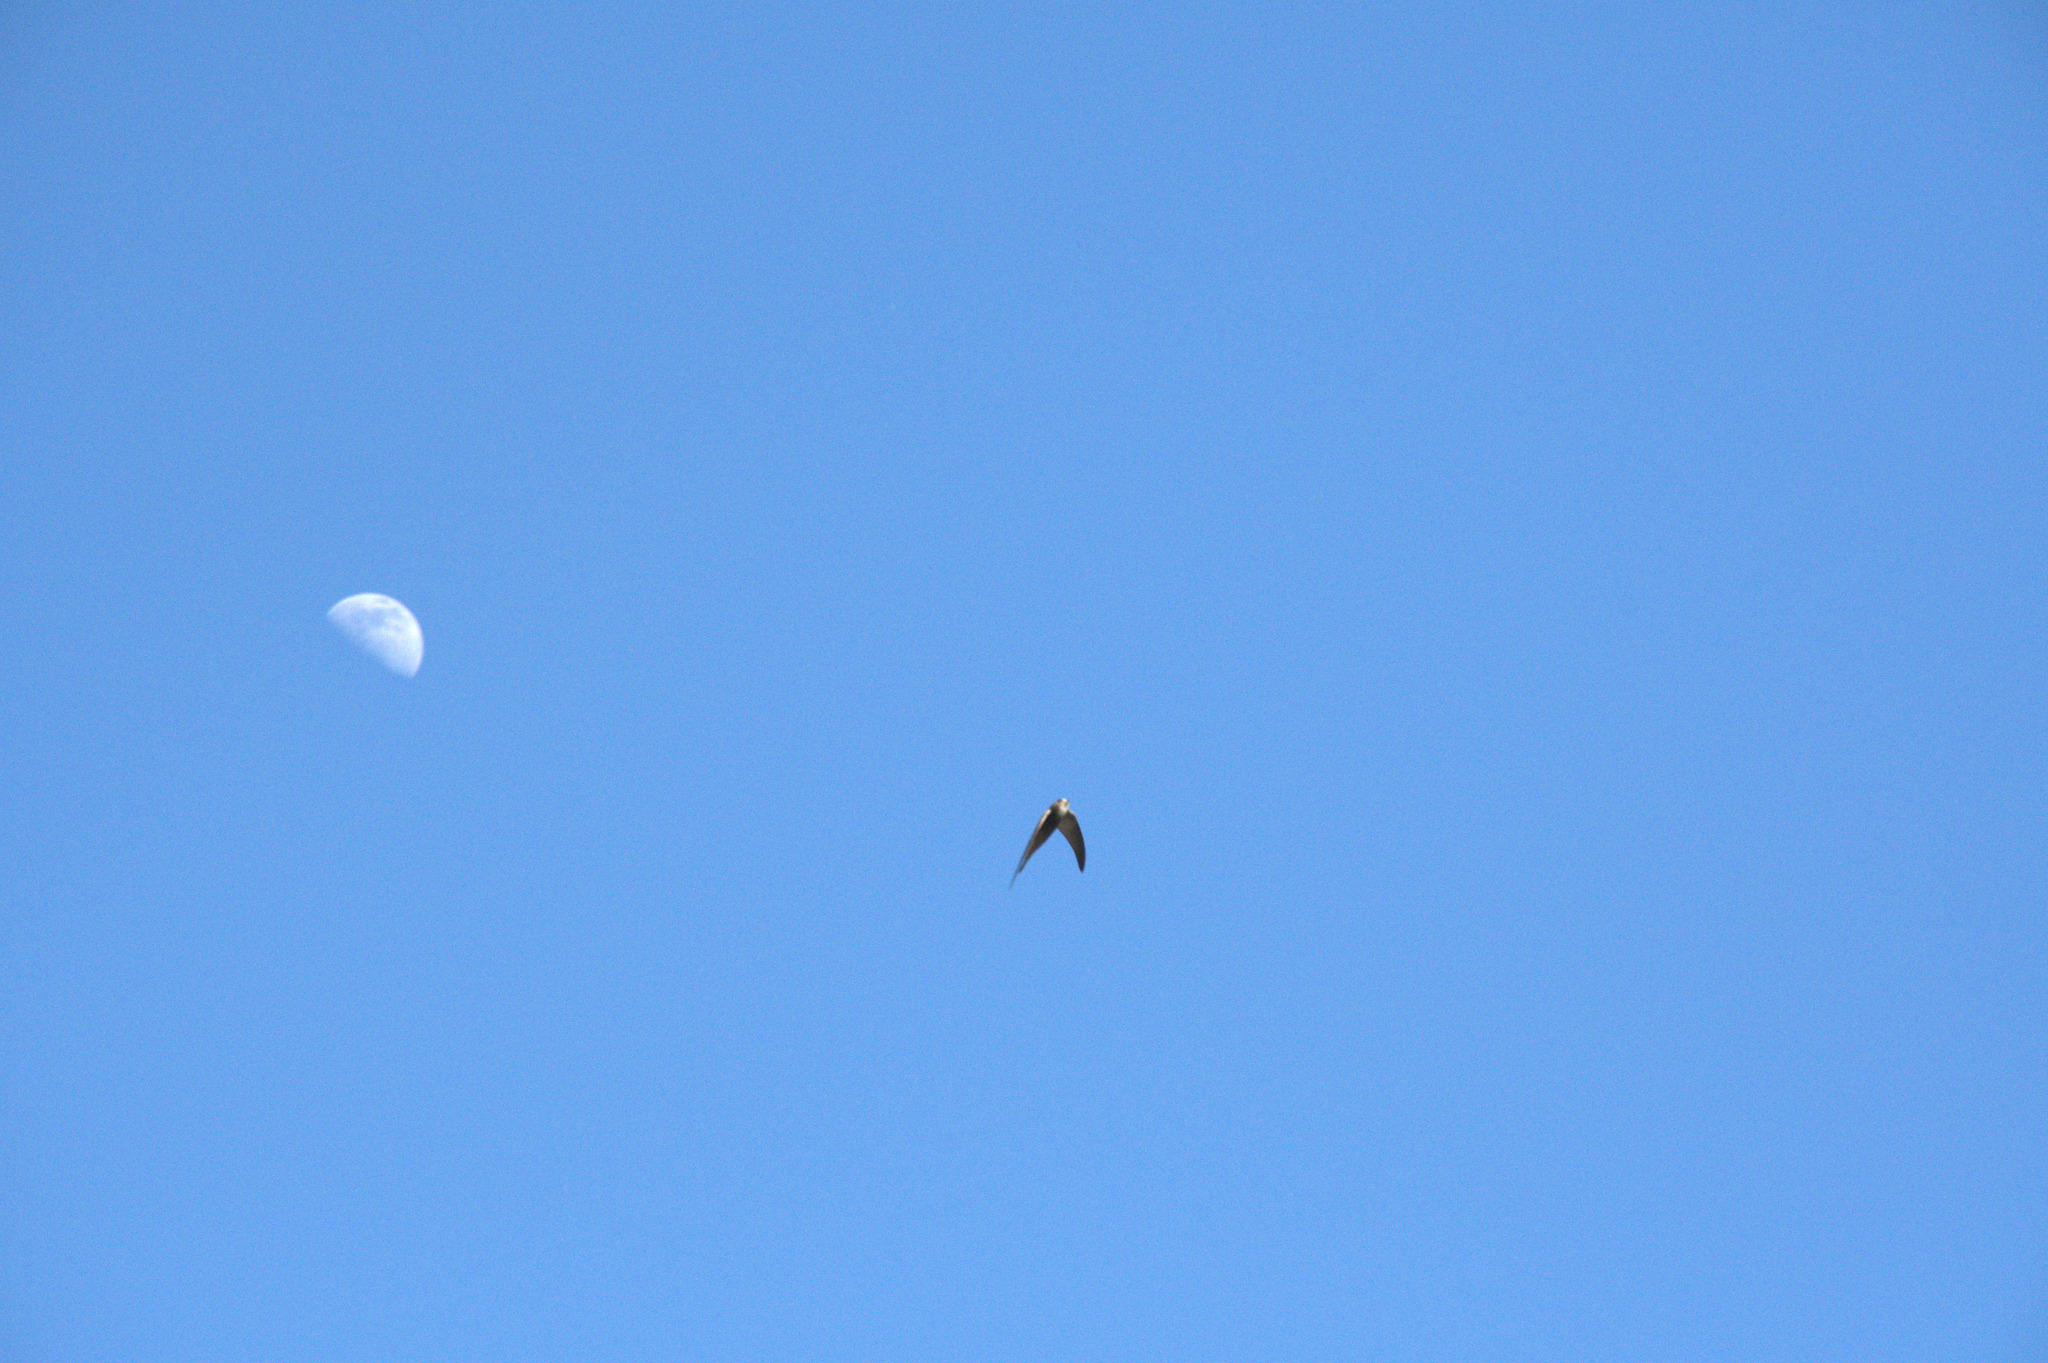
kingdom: Animalia
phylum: Chordata
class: Aves
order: Apodiformes
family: Apodidae
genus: Apus
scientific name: Apus pallidus
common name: Pallid swift
